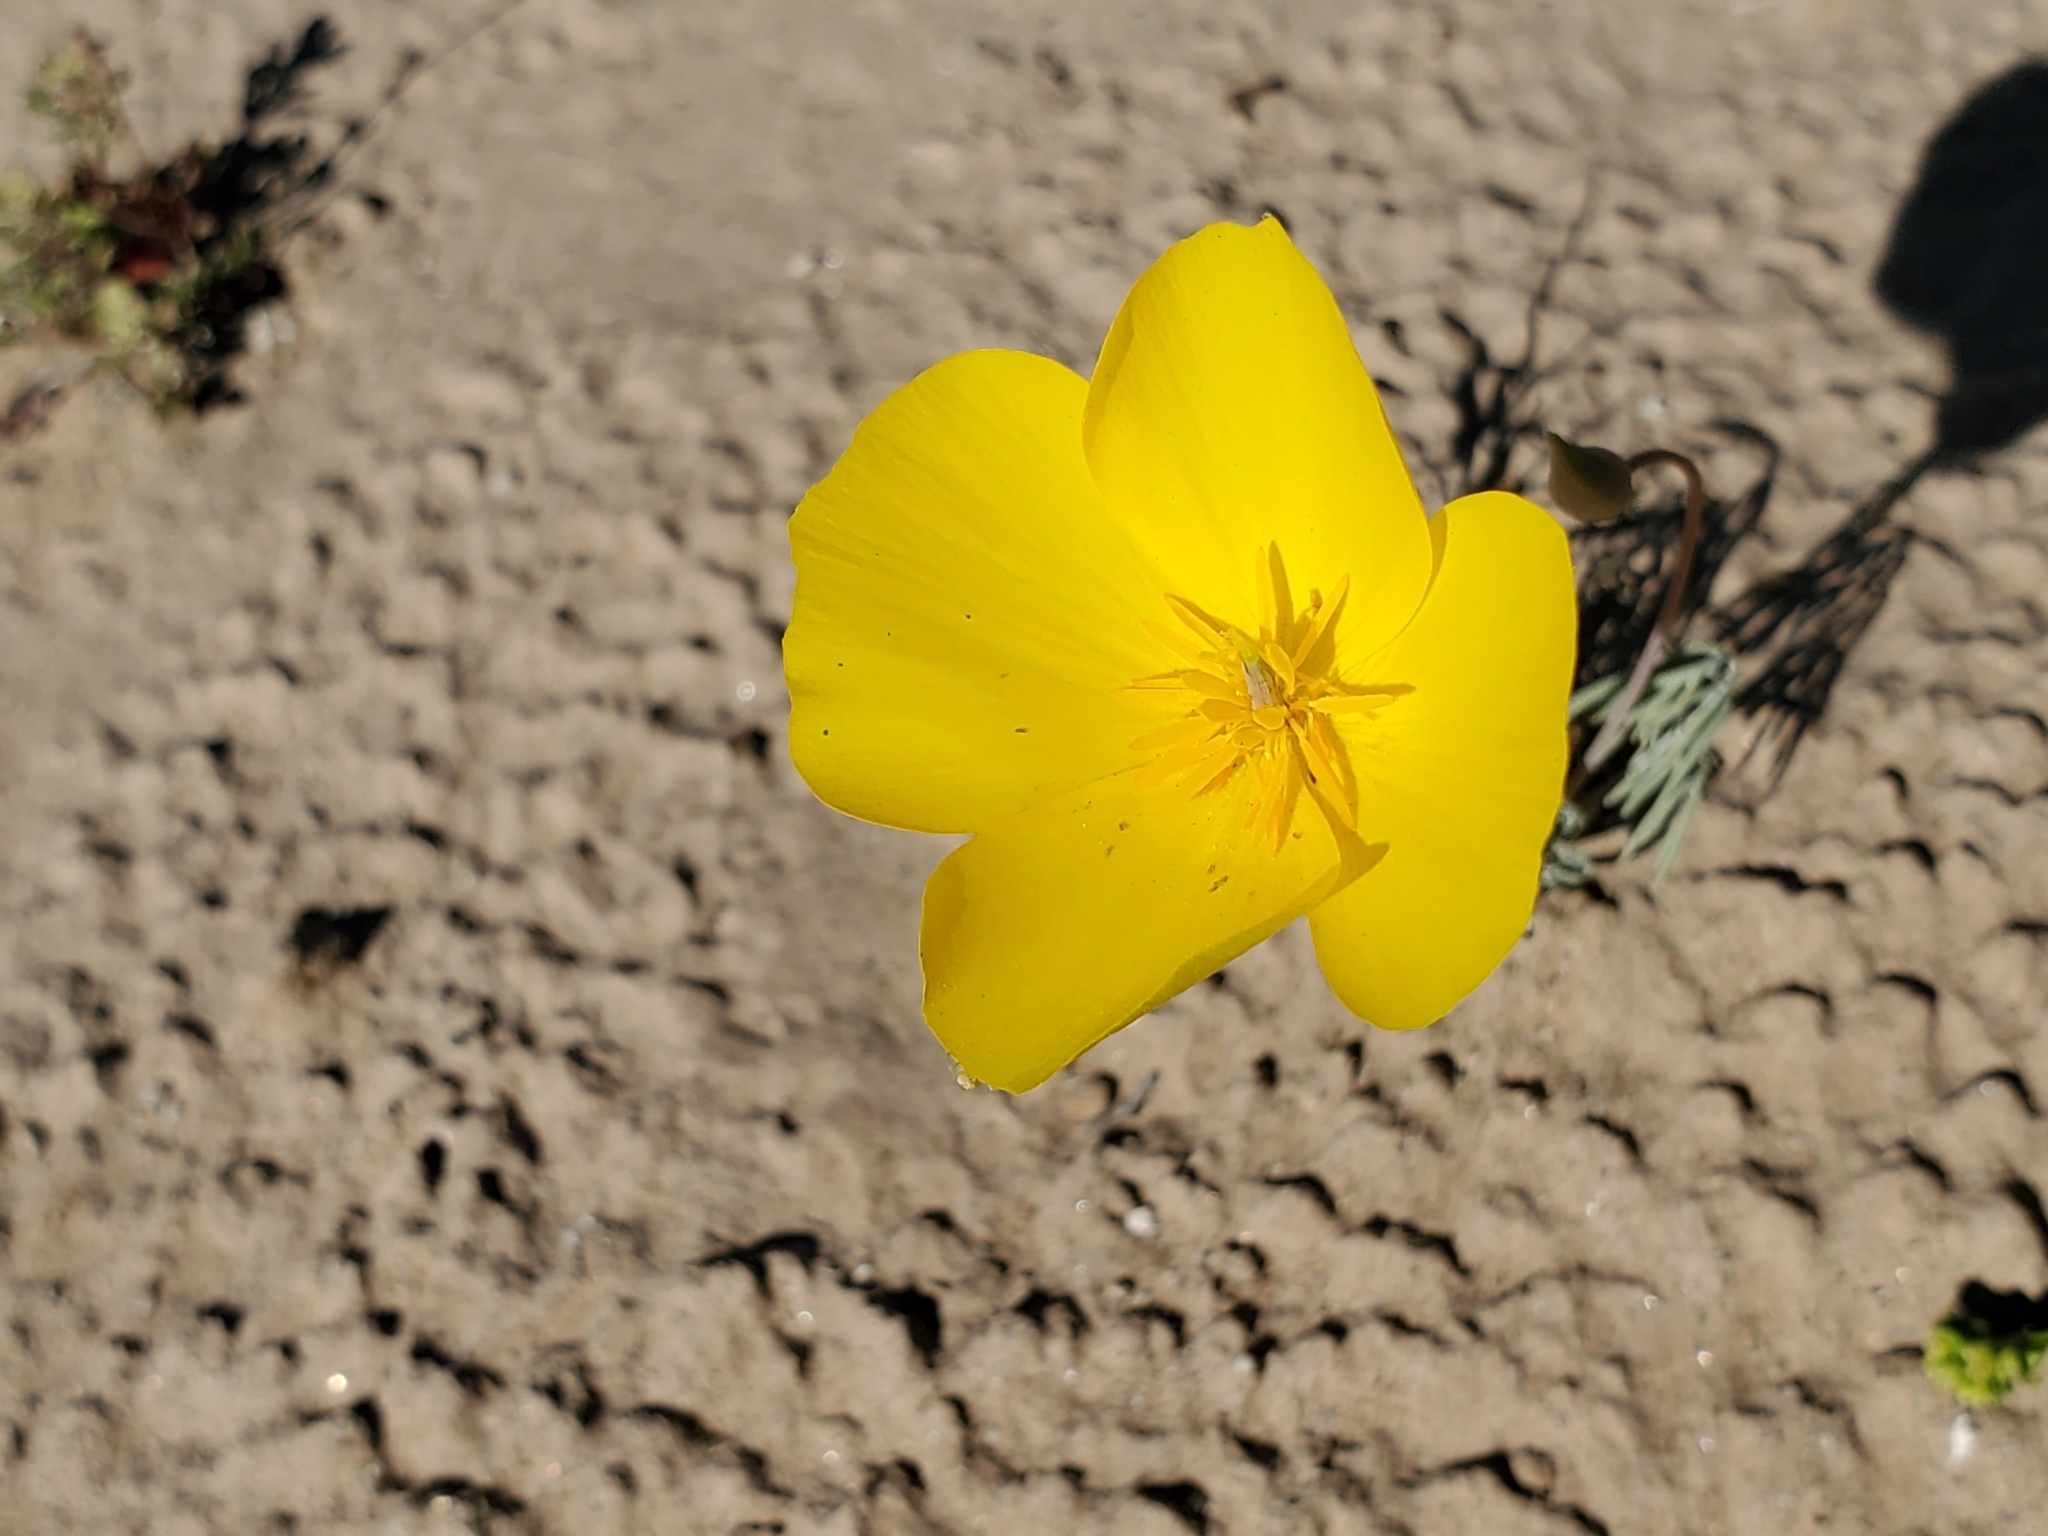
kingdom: Plantae
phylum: Tracheophyta
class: Magnoliopsida
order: Ranunculales
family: Papaveraceae
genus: Eschscholzia
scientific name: Eschscholzia parishii
